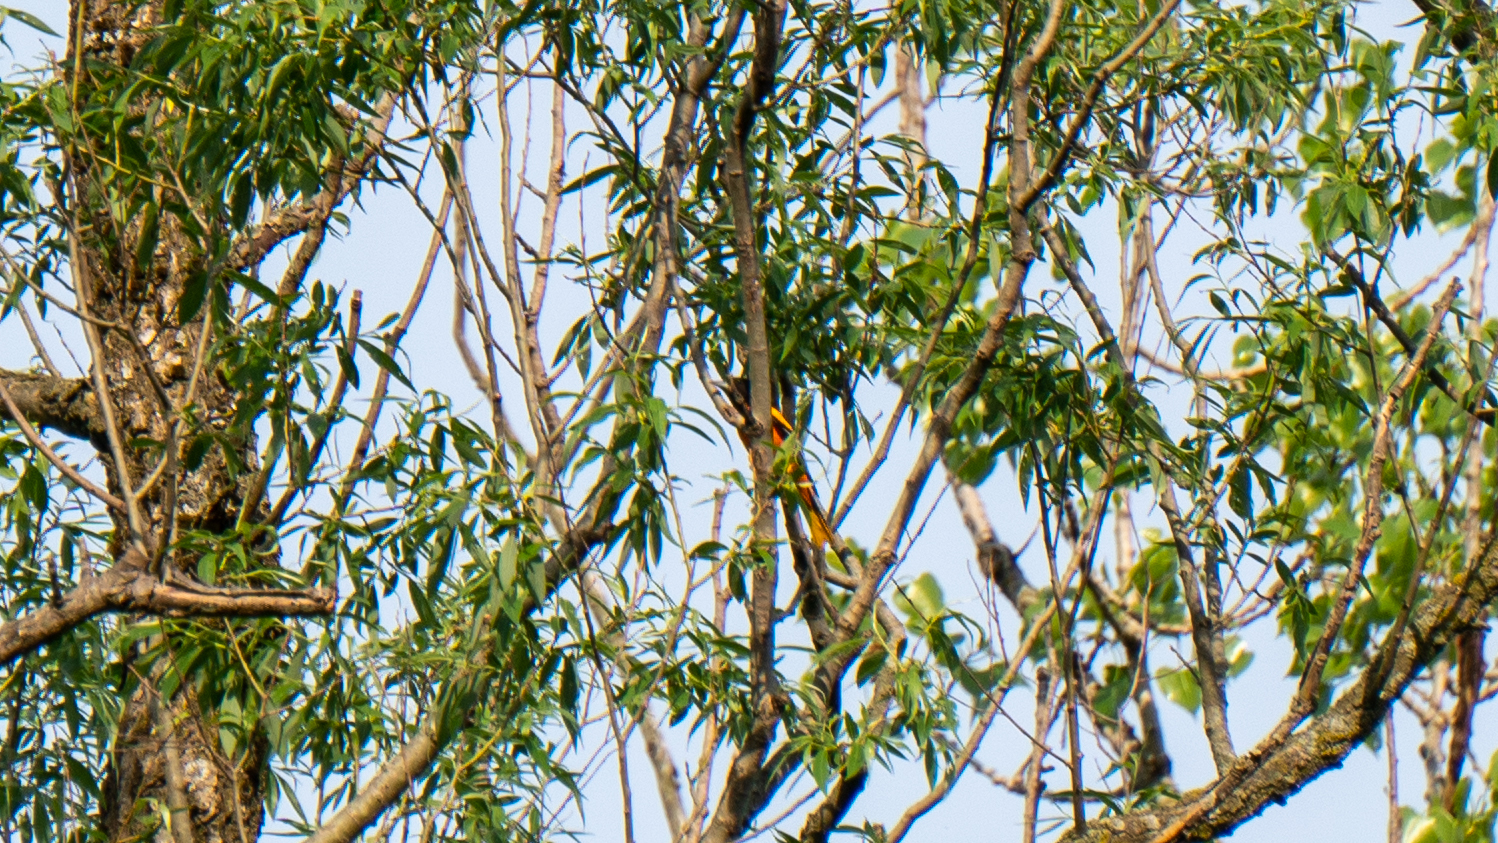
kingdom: Animalia
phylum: Chordata
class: Aves
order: Passeriformes
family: Icteridae
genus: Icterus
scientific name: Icterus galbula
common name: Baltimore oriole
